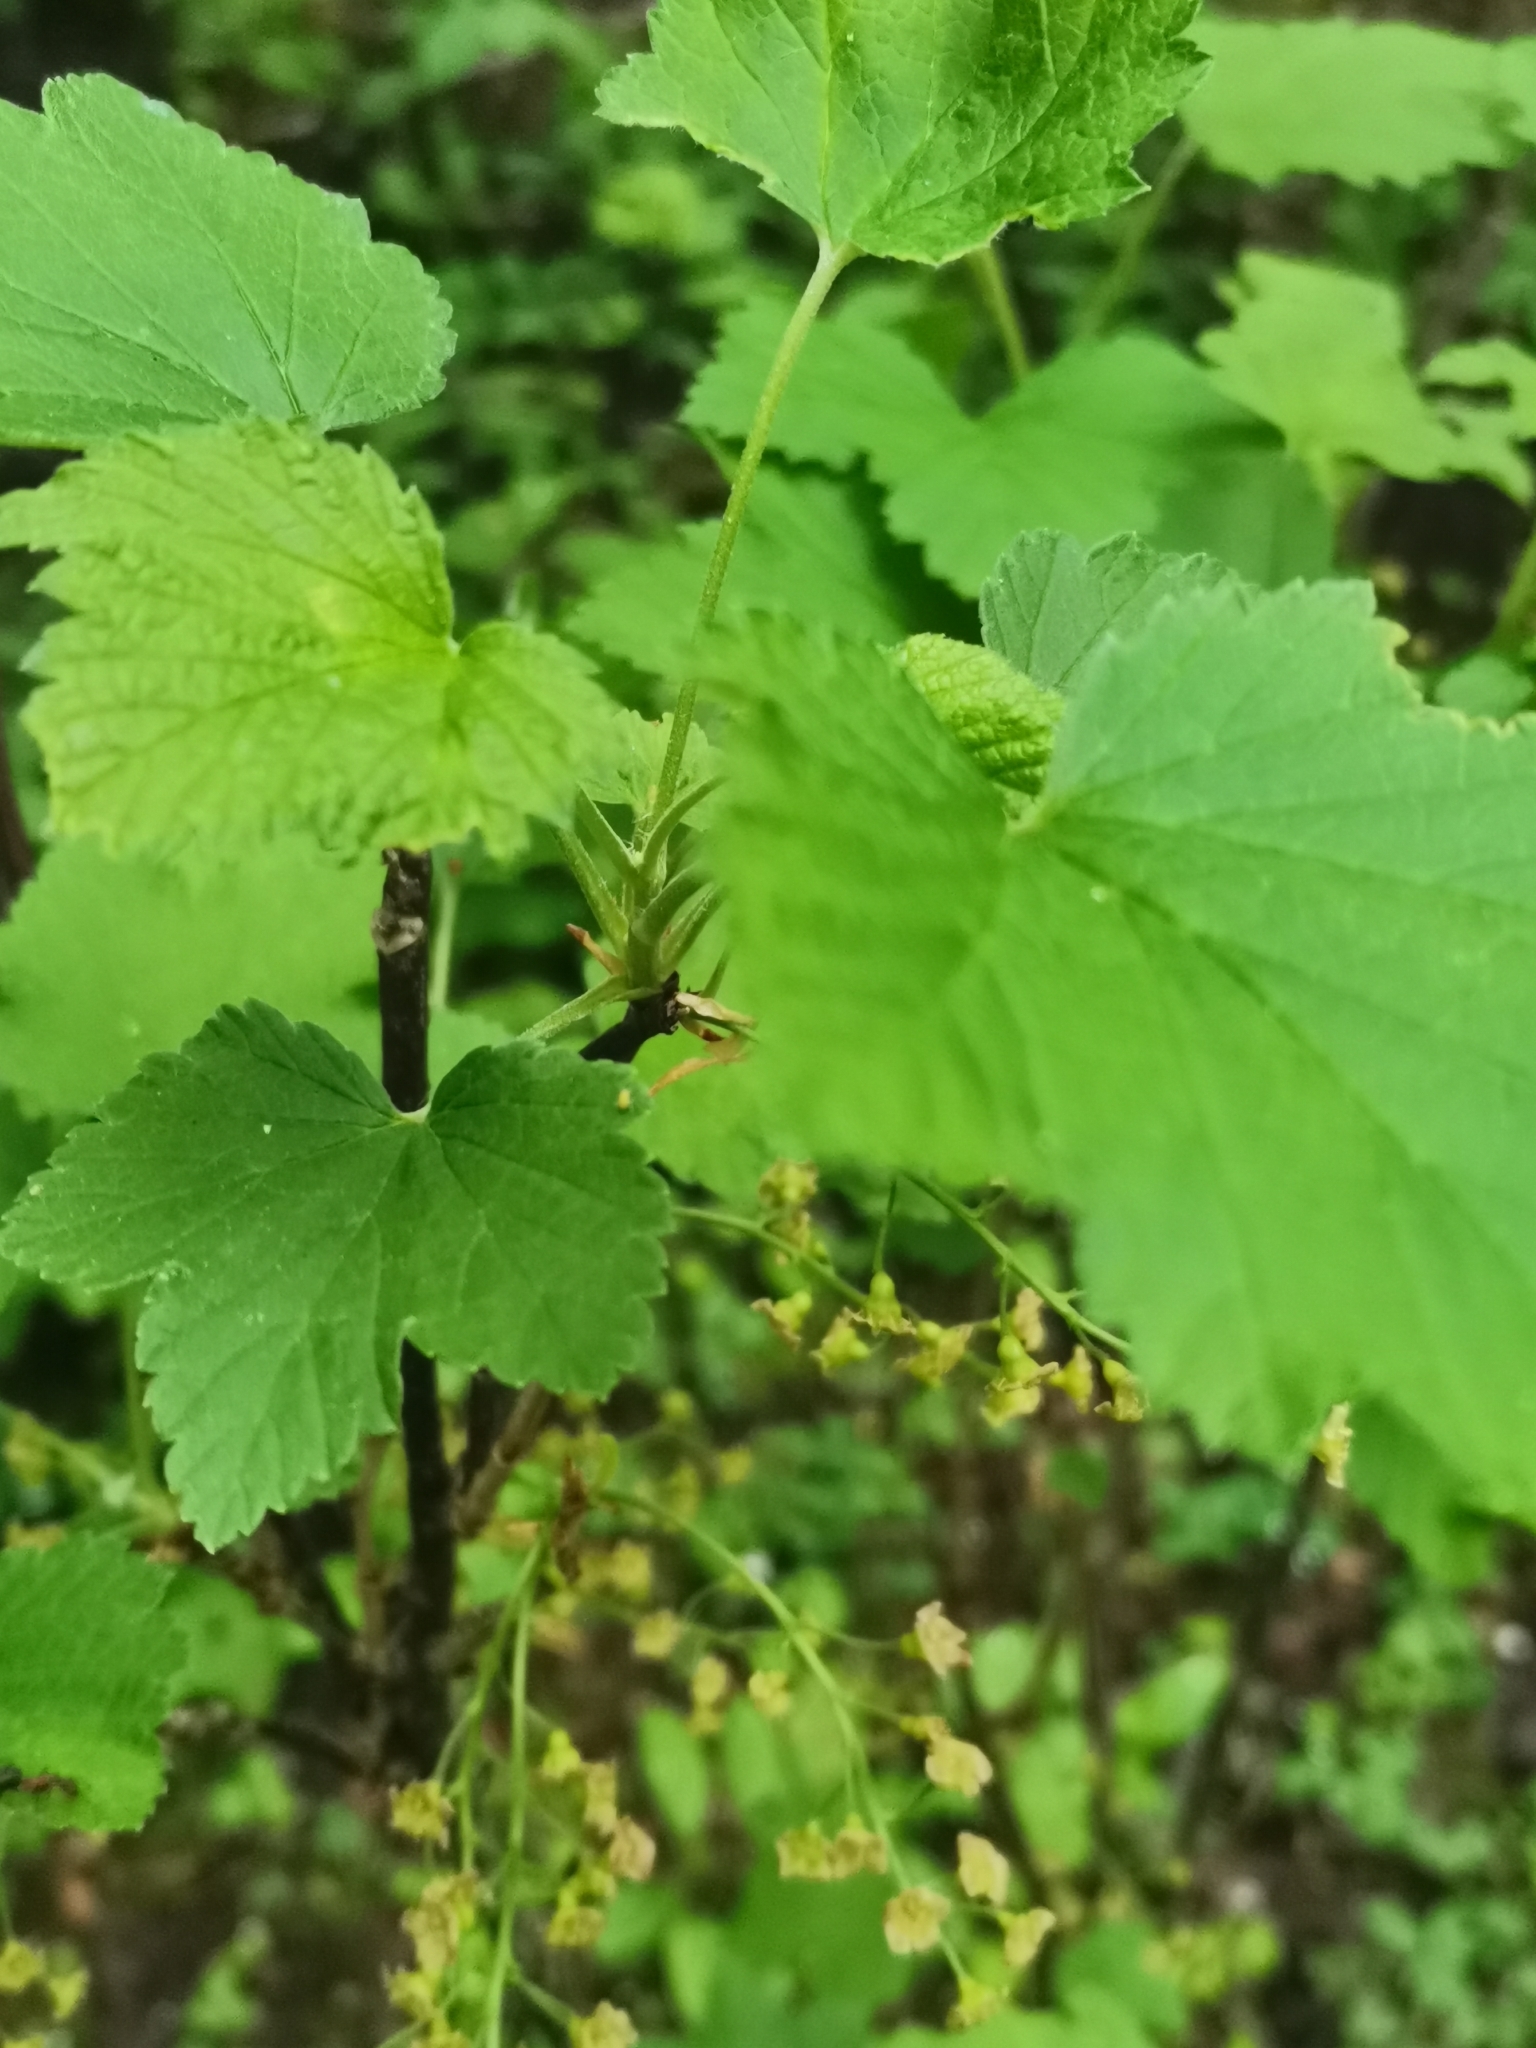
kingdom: Plantae
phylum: Tracheophyta
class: Magnoliopsida
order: Saxifragales
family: Grossulariaceae
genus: Ribes
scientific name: Ribes alpinum
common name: Alpine currant
